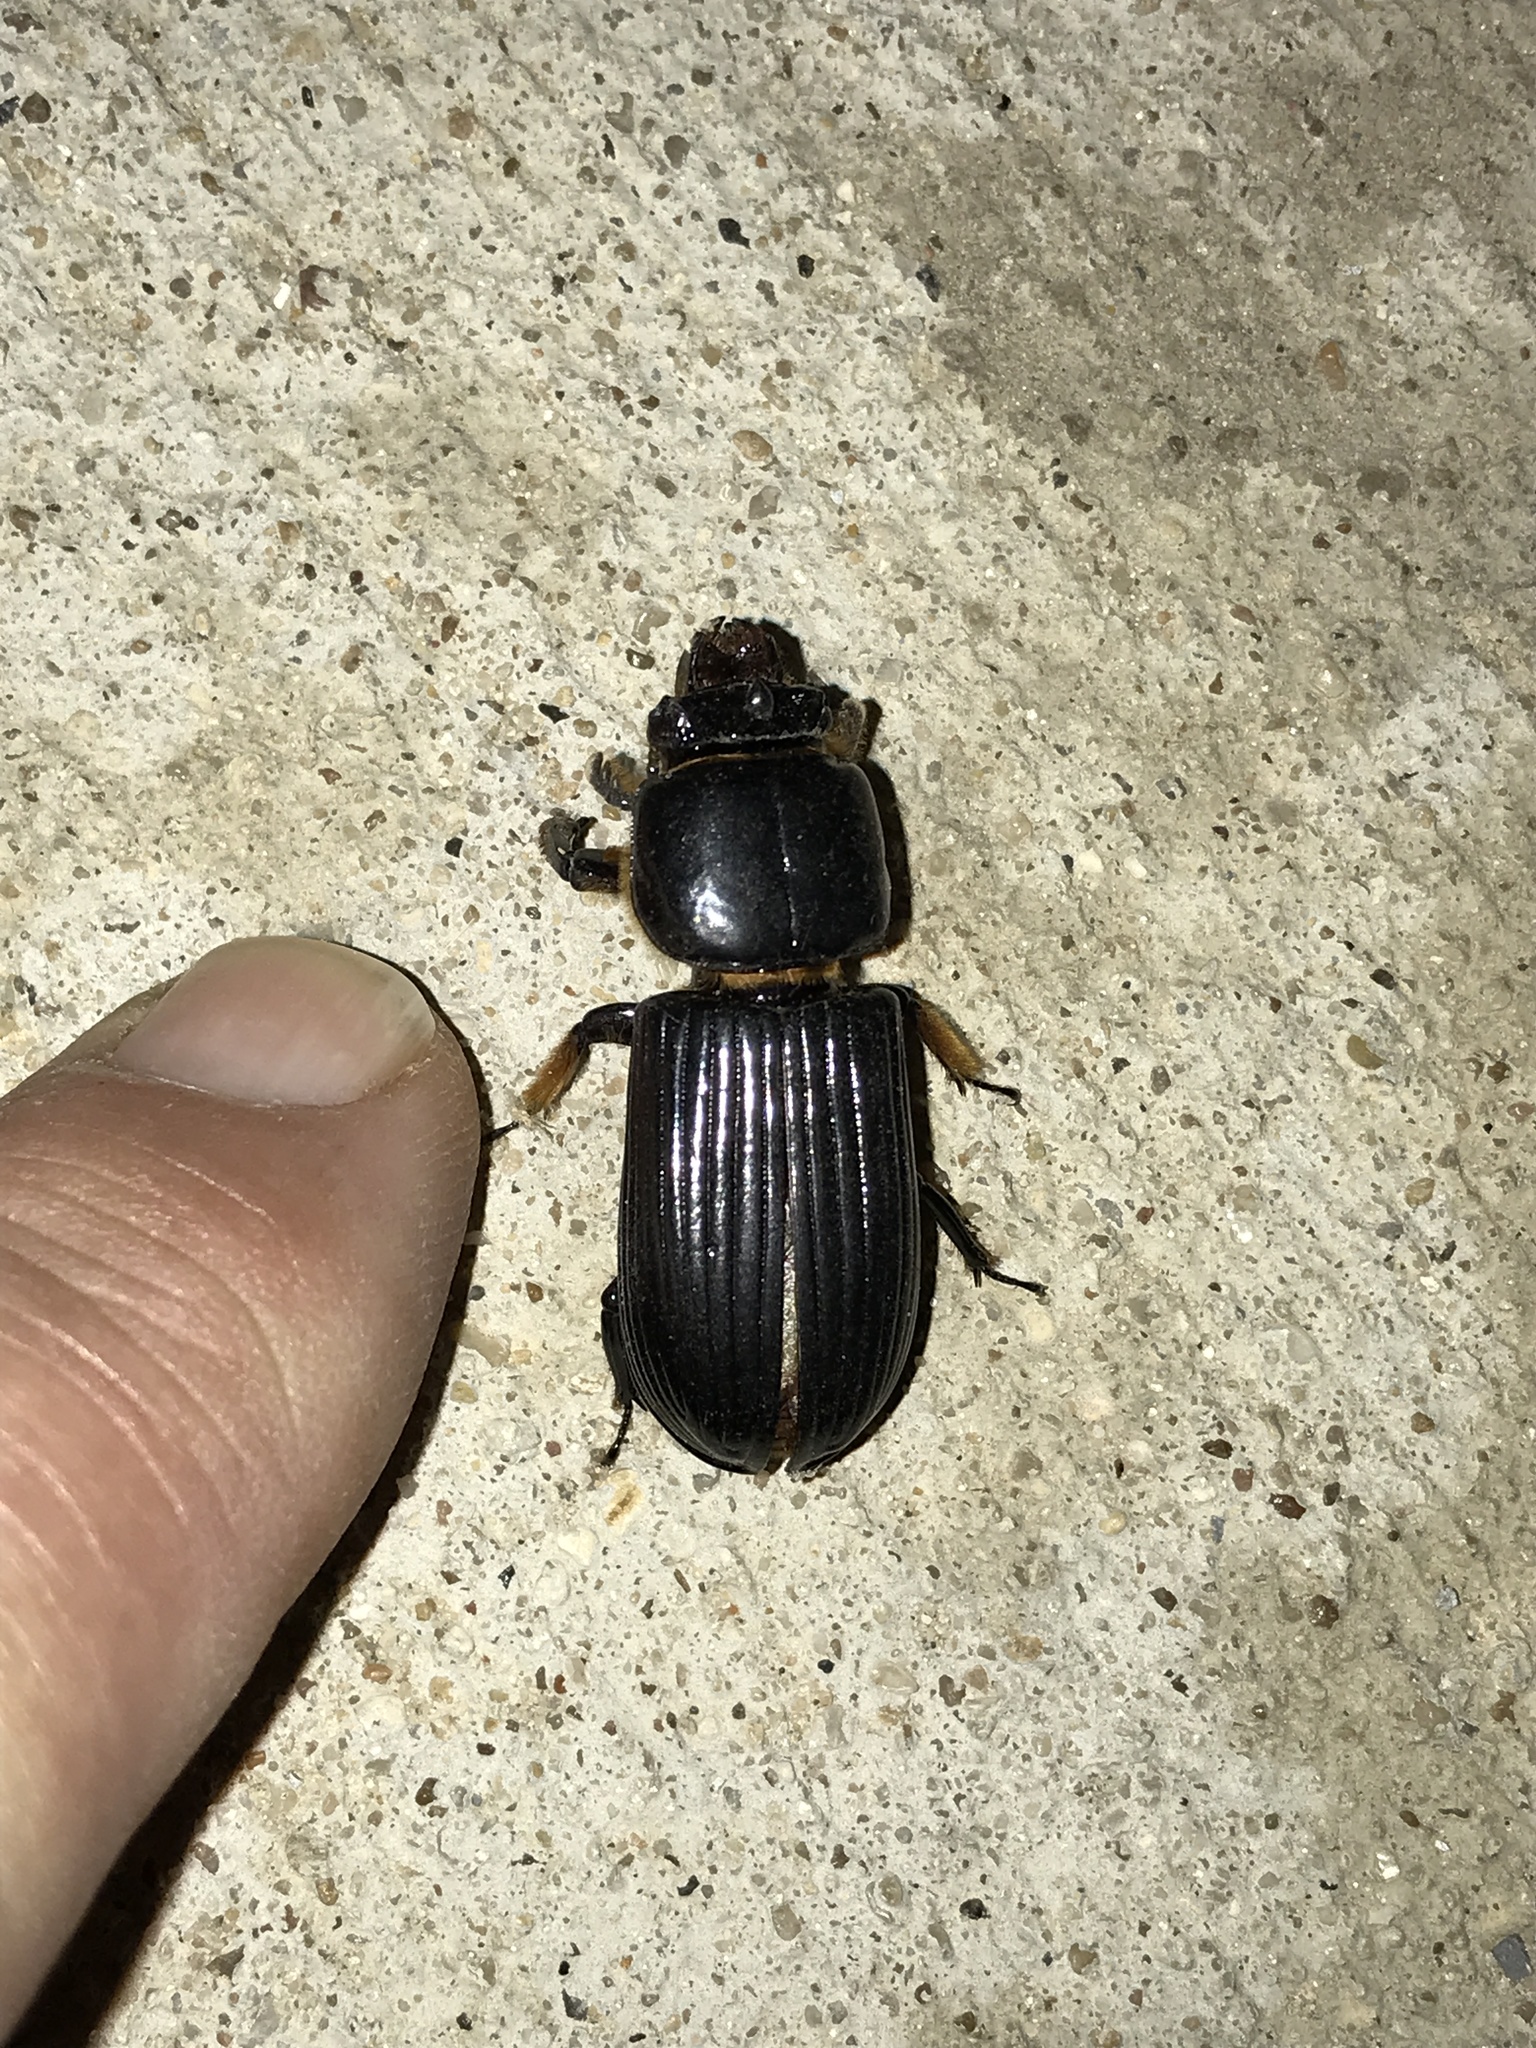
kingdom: Animalia
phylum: Arthropoda
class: Insecta
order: Coleoptera
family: Passalidae
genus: Odontotaenius
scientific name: Odontotaenius disjunctus
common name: Patent leather beetle
